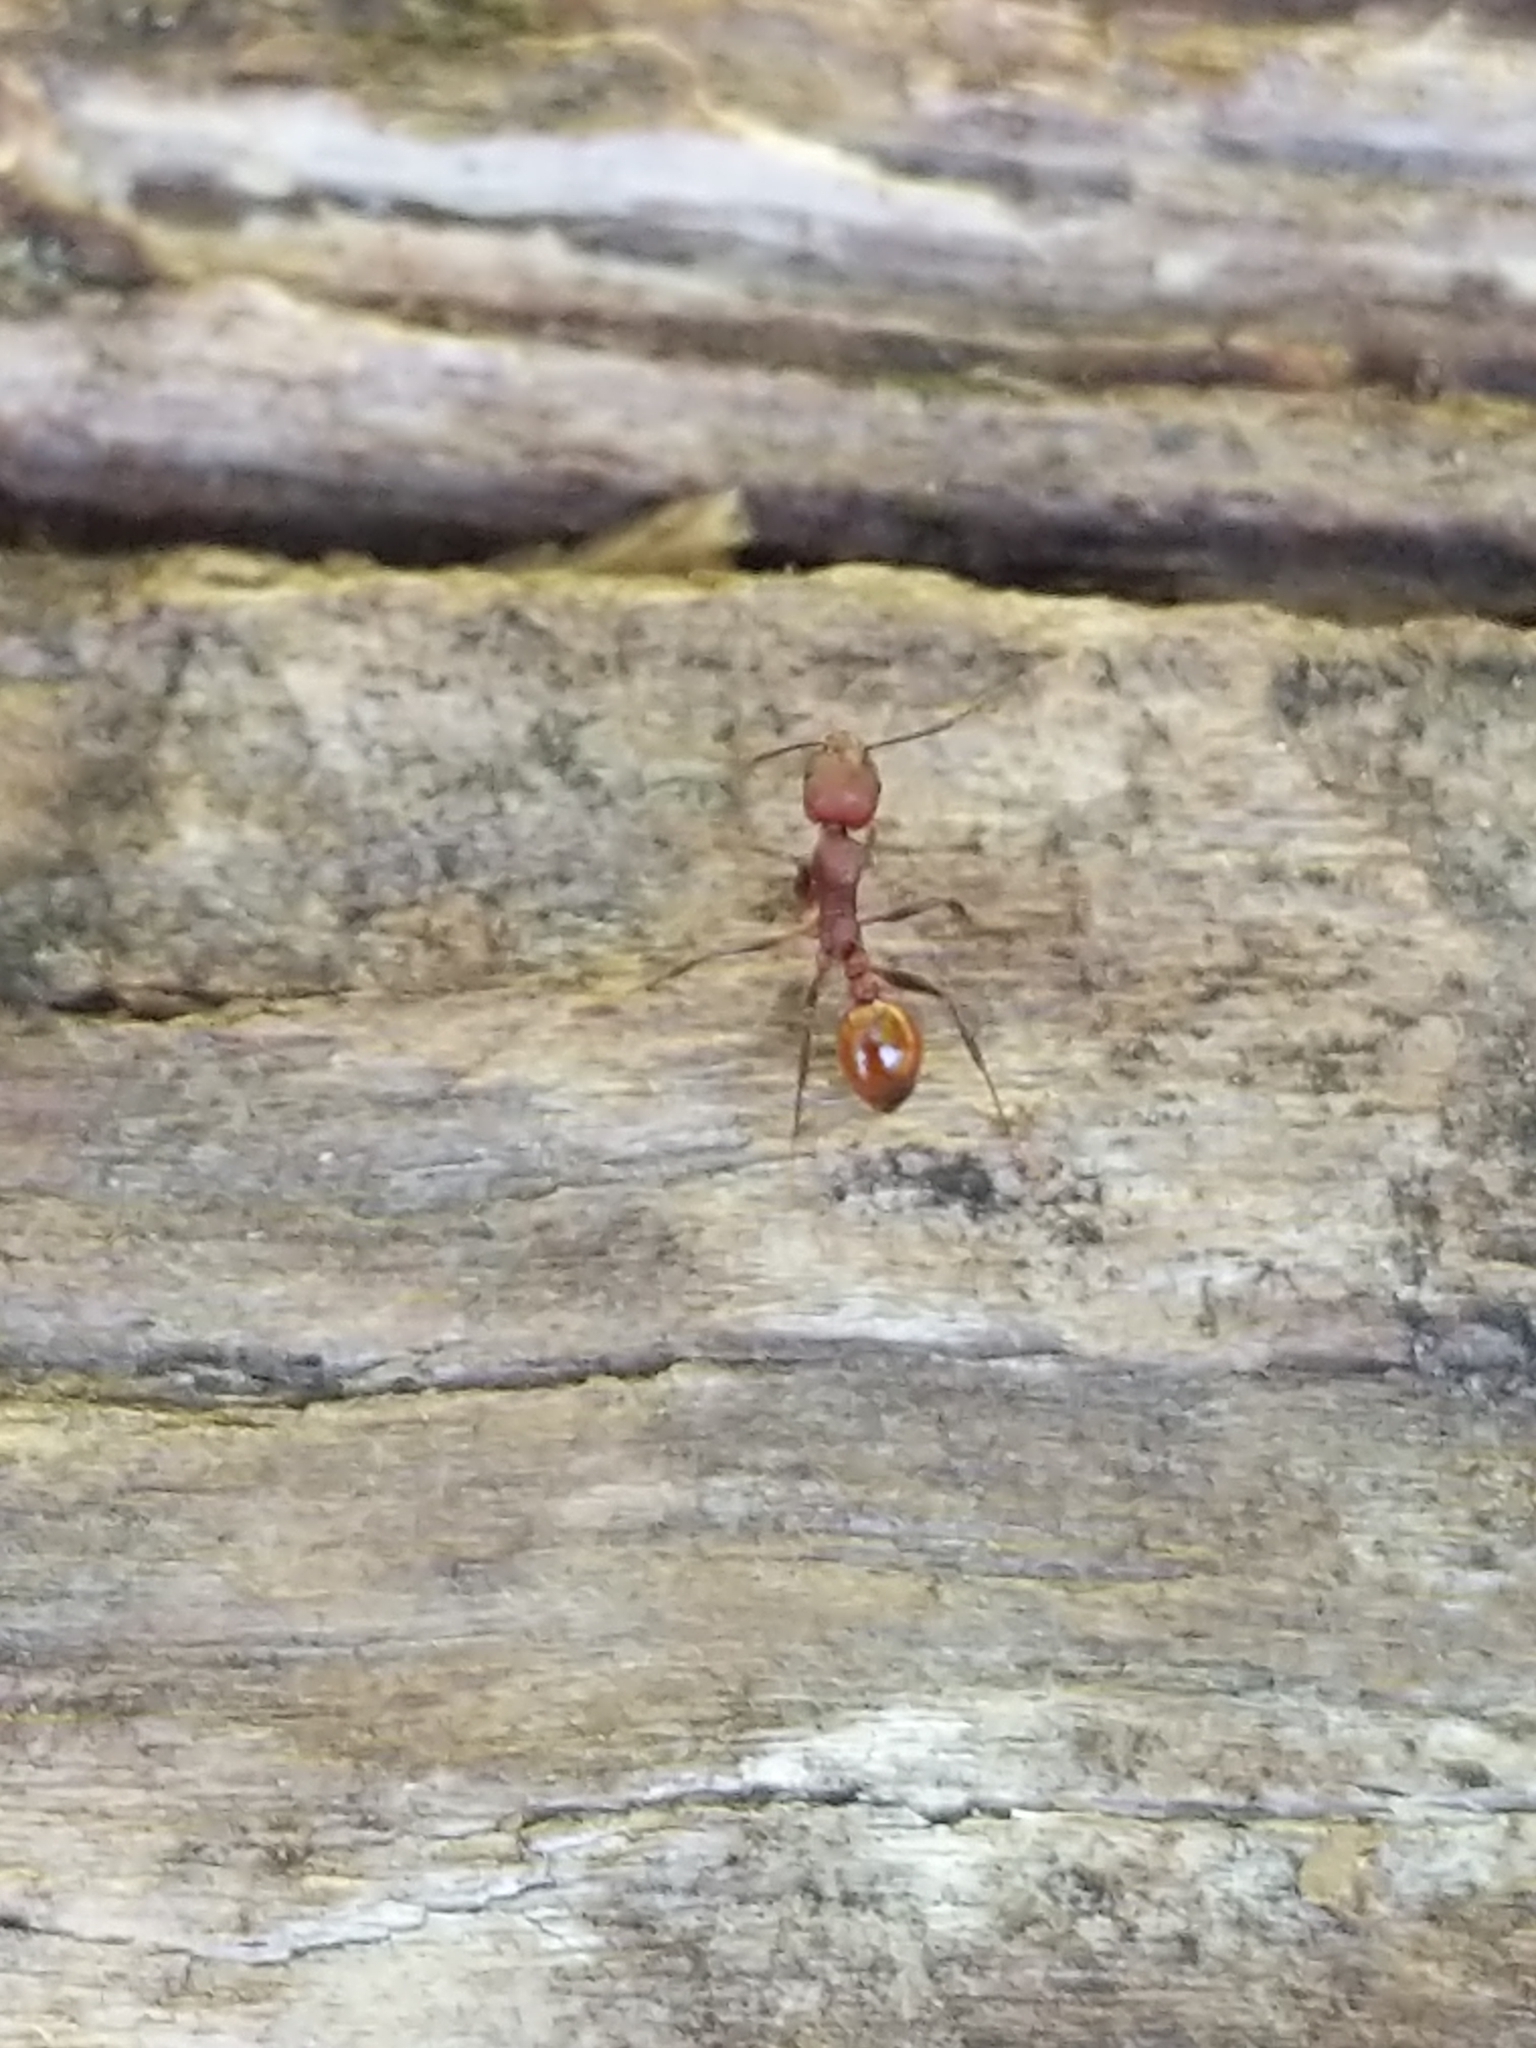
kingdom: Animalia
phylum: Arthropoda
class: Insecta
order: Hymenoptera
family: Formicidae
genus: Aphaenogaster
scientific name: Aphaenogaster tennesseensis
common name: Tennessee thread-waisted ant
